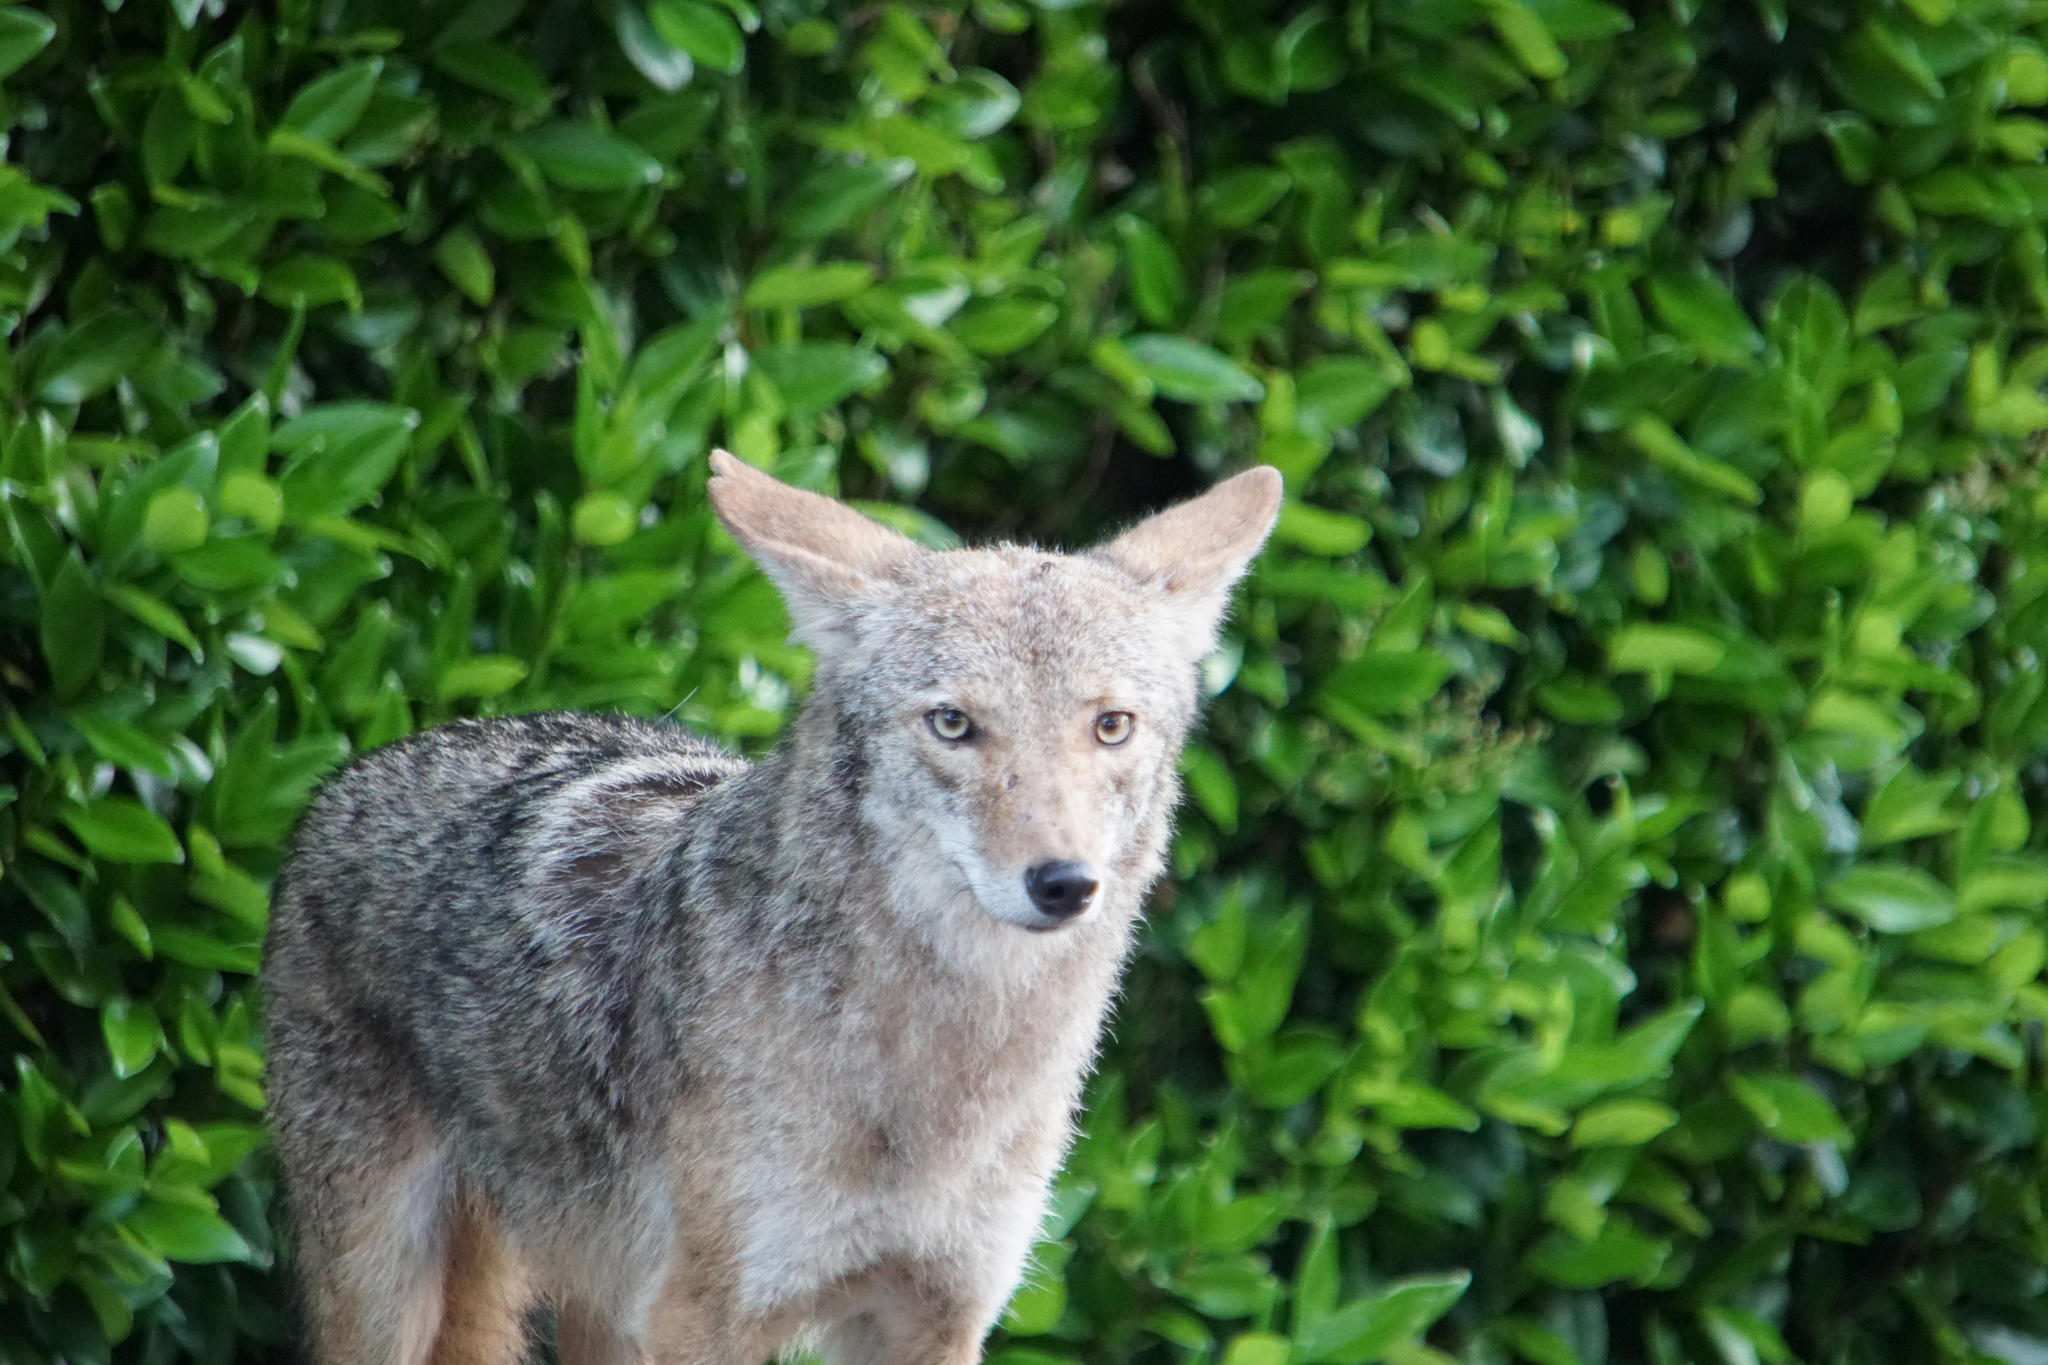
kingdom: Animalia
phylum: Chordata
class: Mammalia
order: Carnivora
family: Canidae
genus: Canis
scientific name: Canis latrans
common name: Coyote
